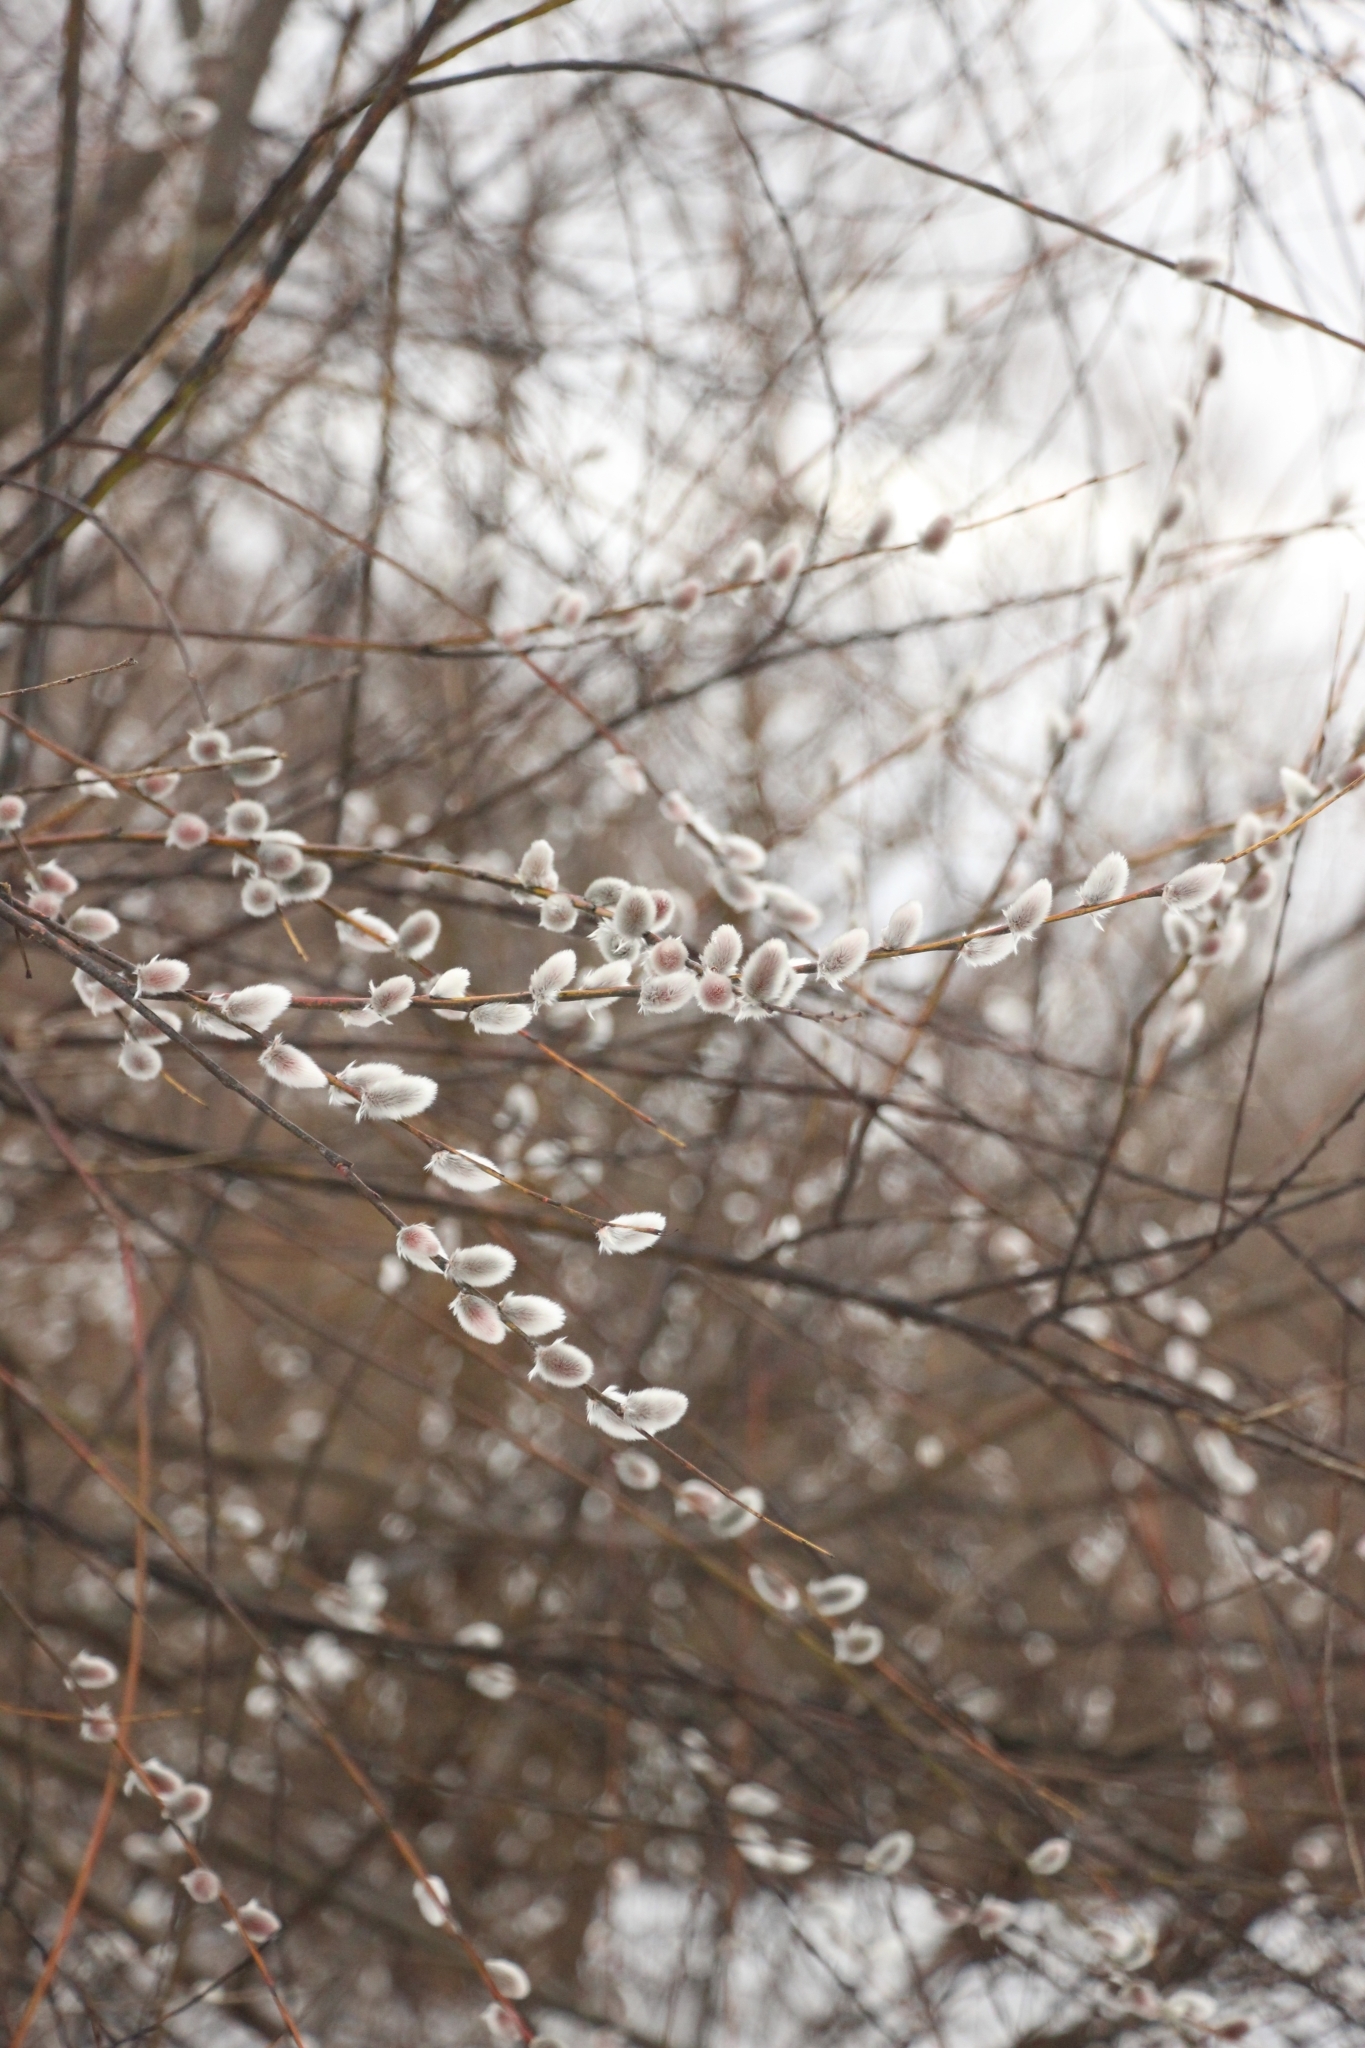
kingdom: Plantae
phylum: Tracheophyta
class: Magnoliopsida
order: Malpighiales
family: Salicaceae
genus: Salix
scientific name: Salix acutifolia
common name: Siberian violet-willow
